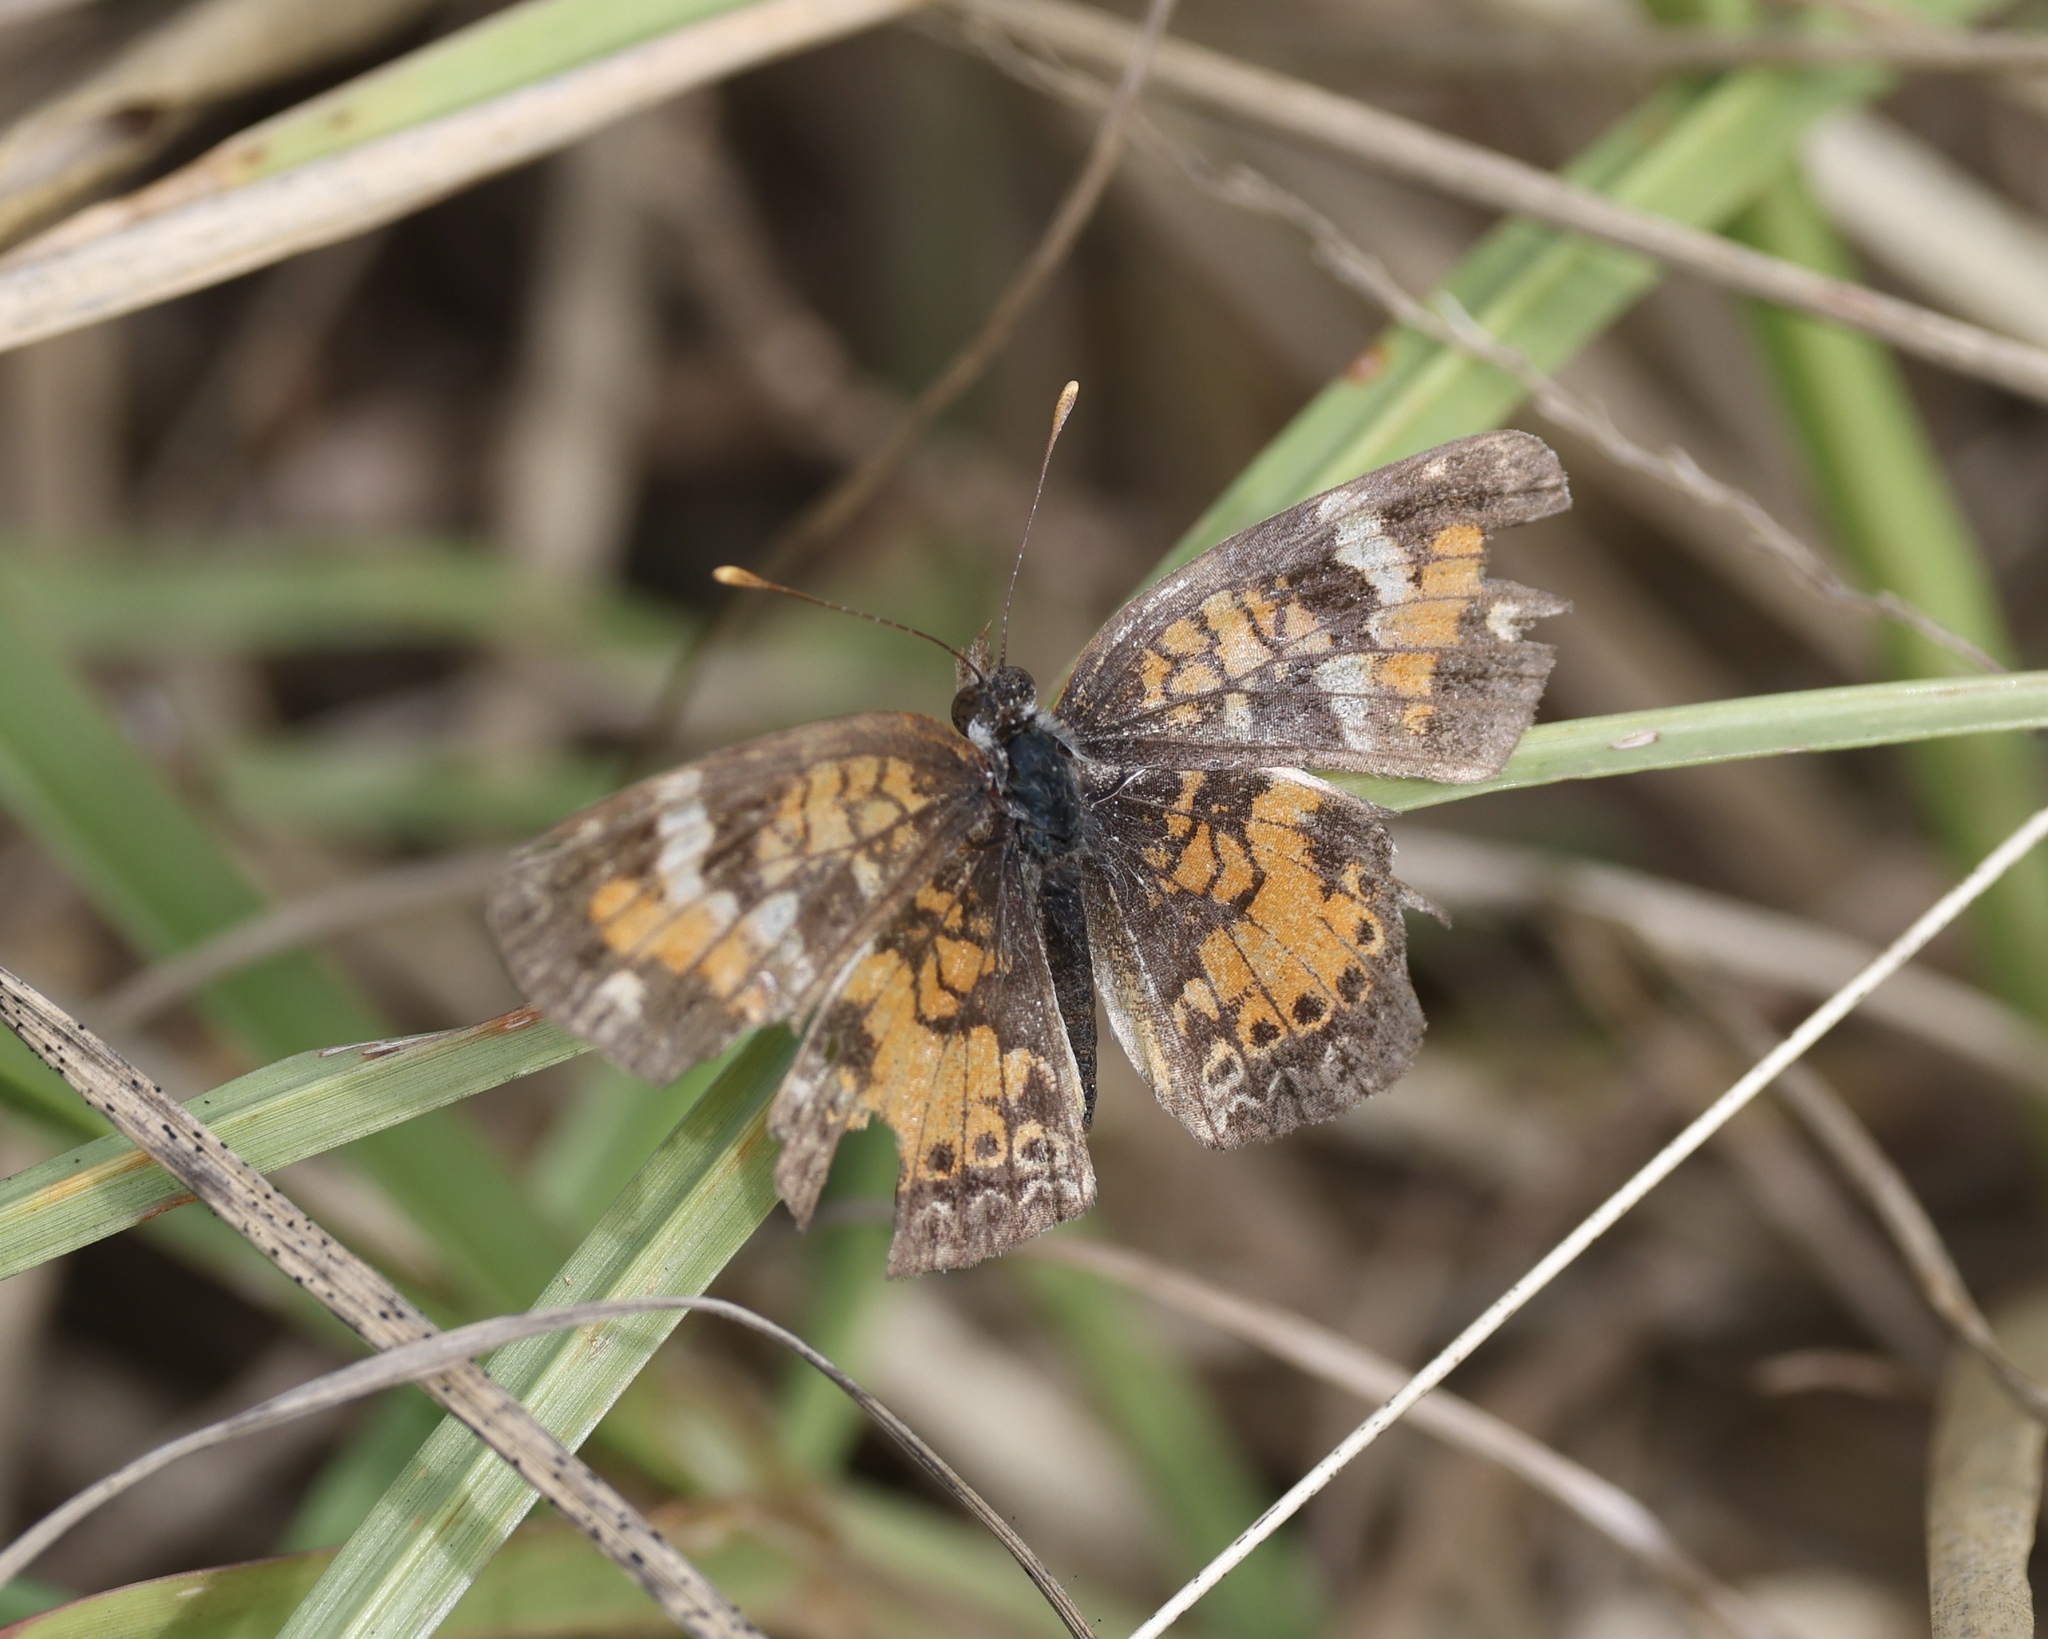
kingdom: Animalia
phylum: Arthropoda
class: Insecta
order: Lepidoptera
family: Nymphalidae
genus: Phyciodes
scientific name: Phyciodes phaon
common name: Phaon crescent
